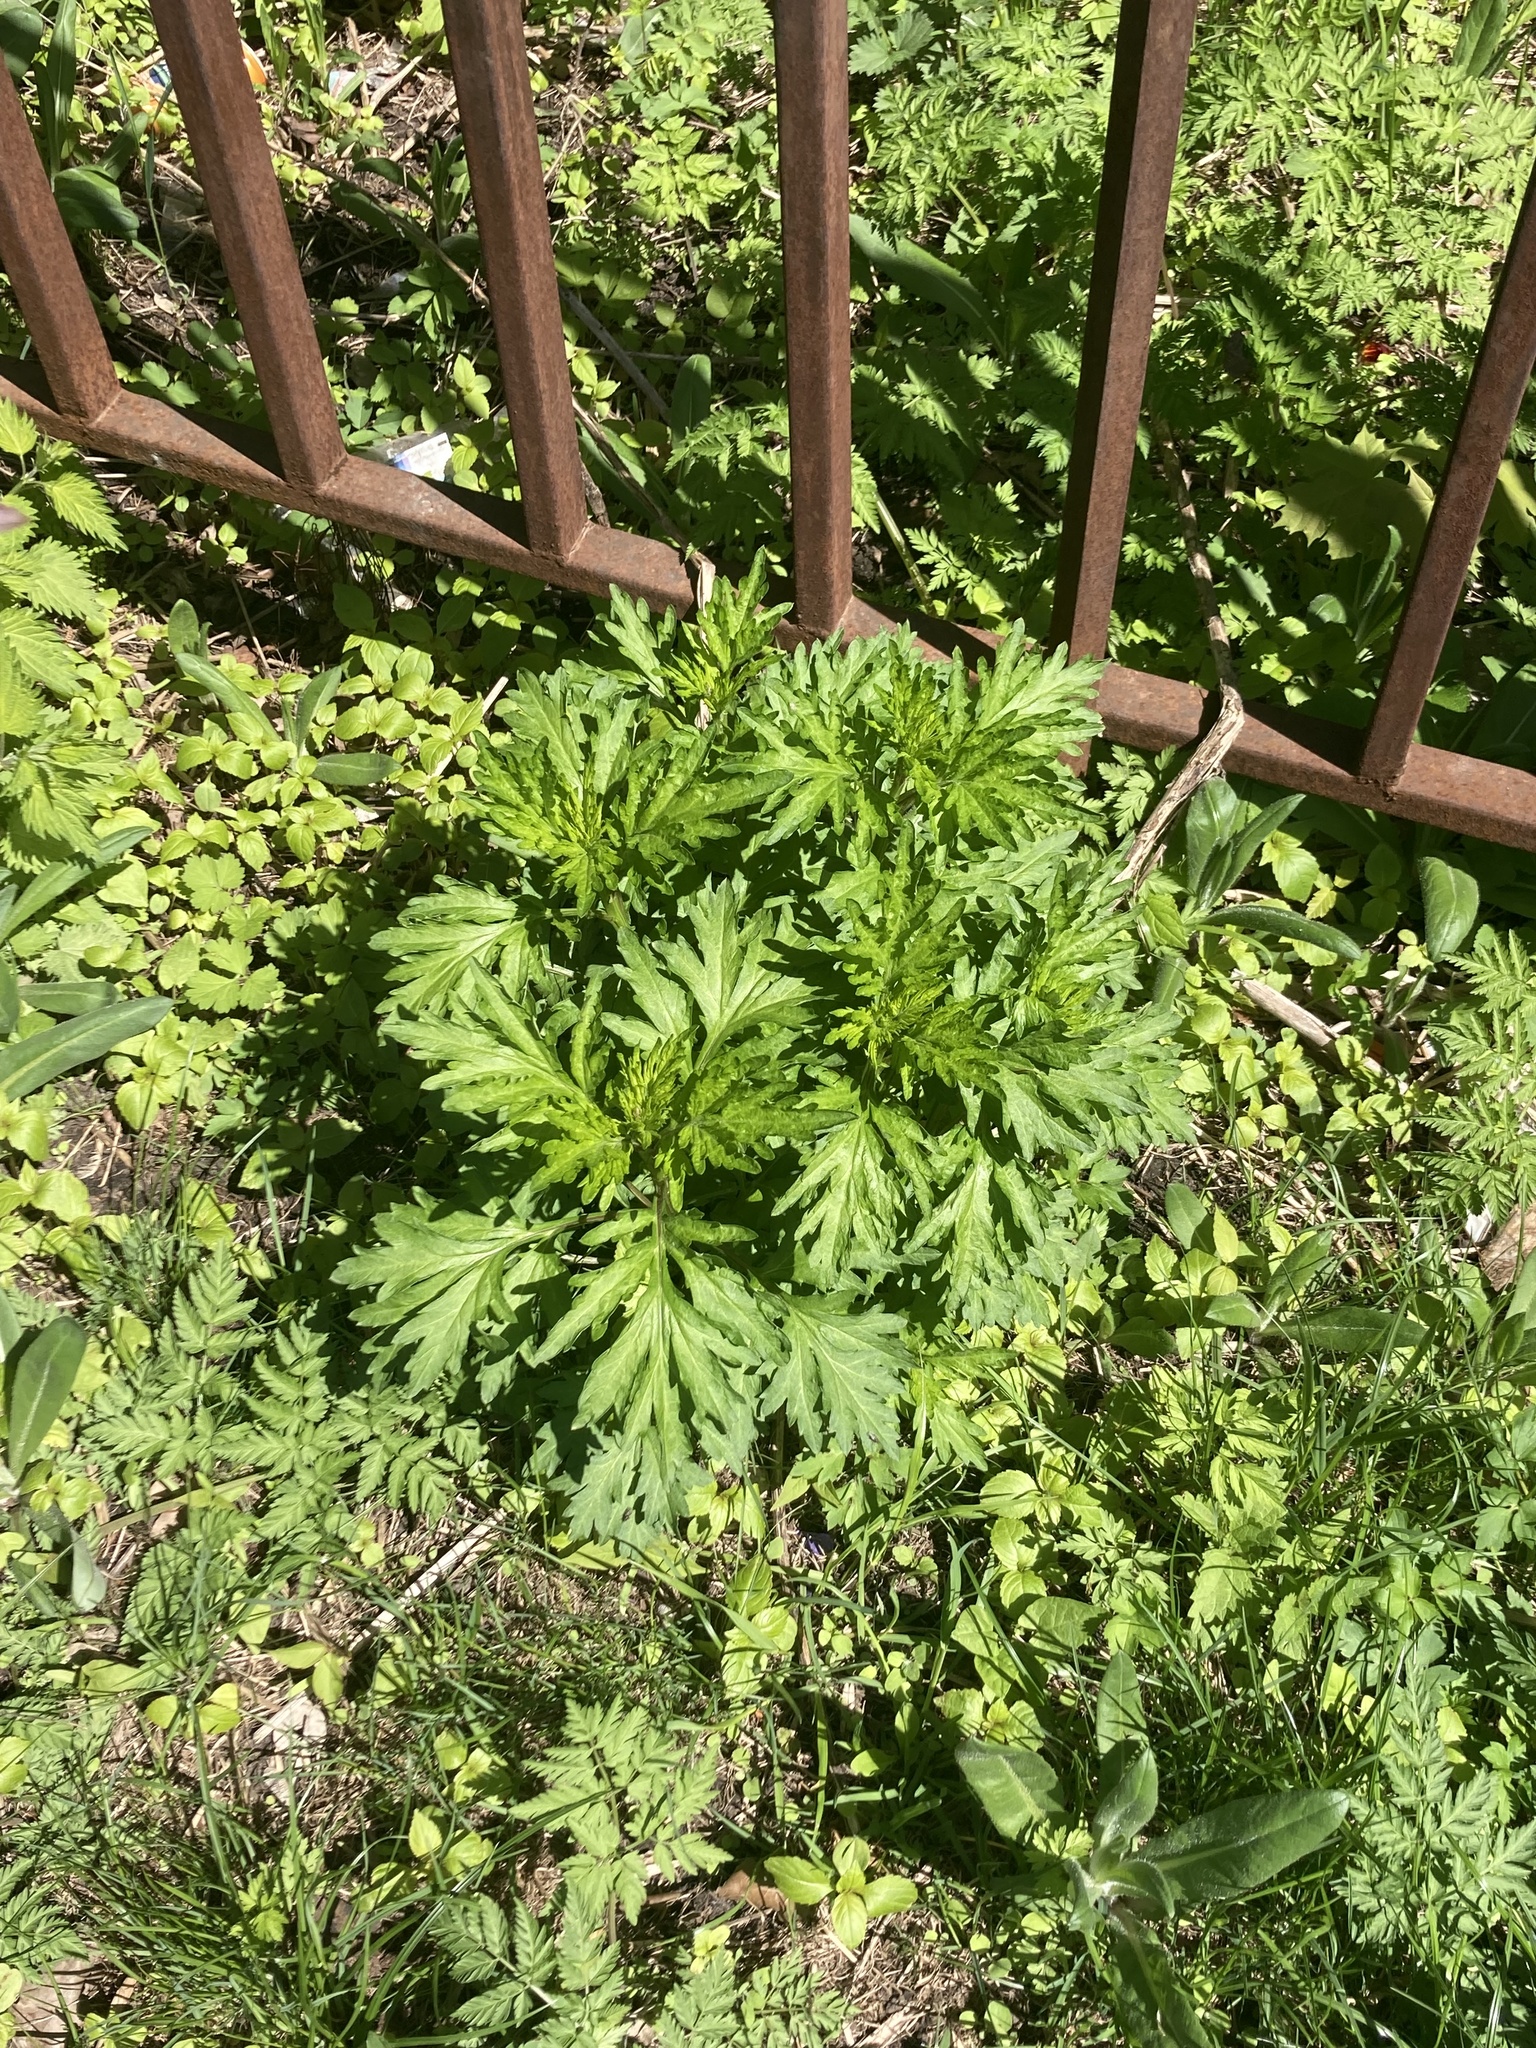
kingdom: Plantae
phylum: Tracheophyta
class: Magnoliopsida
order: Asterales
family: Asteraceae
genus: Artemisia
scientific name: Artemisia vulgaris
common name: Mugwort
